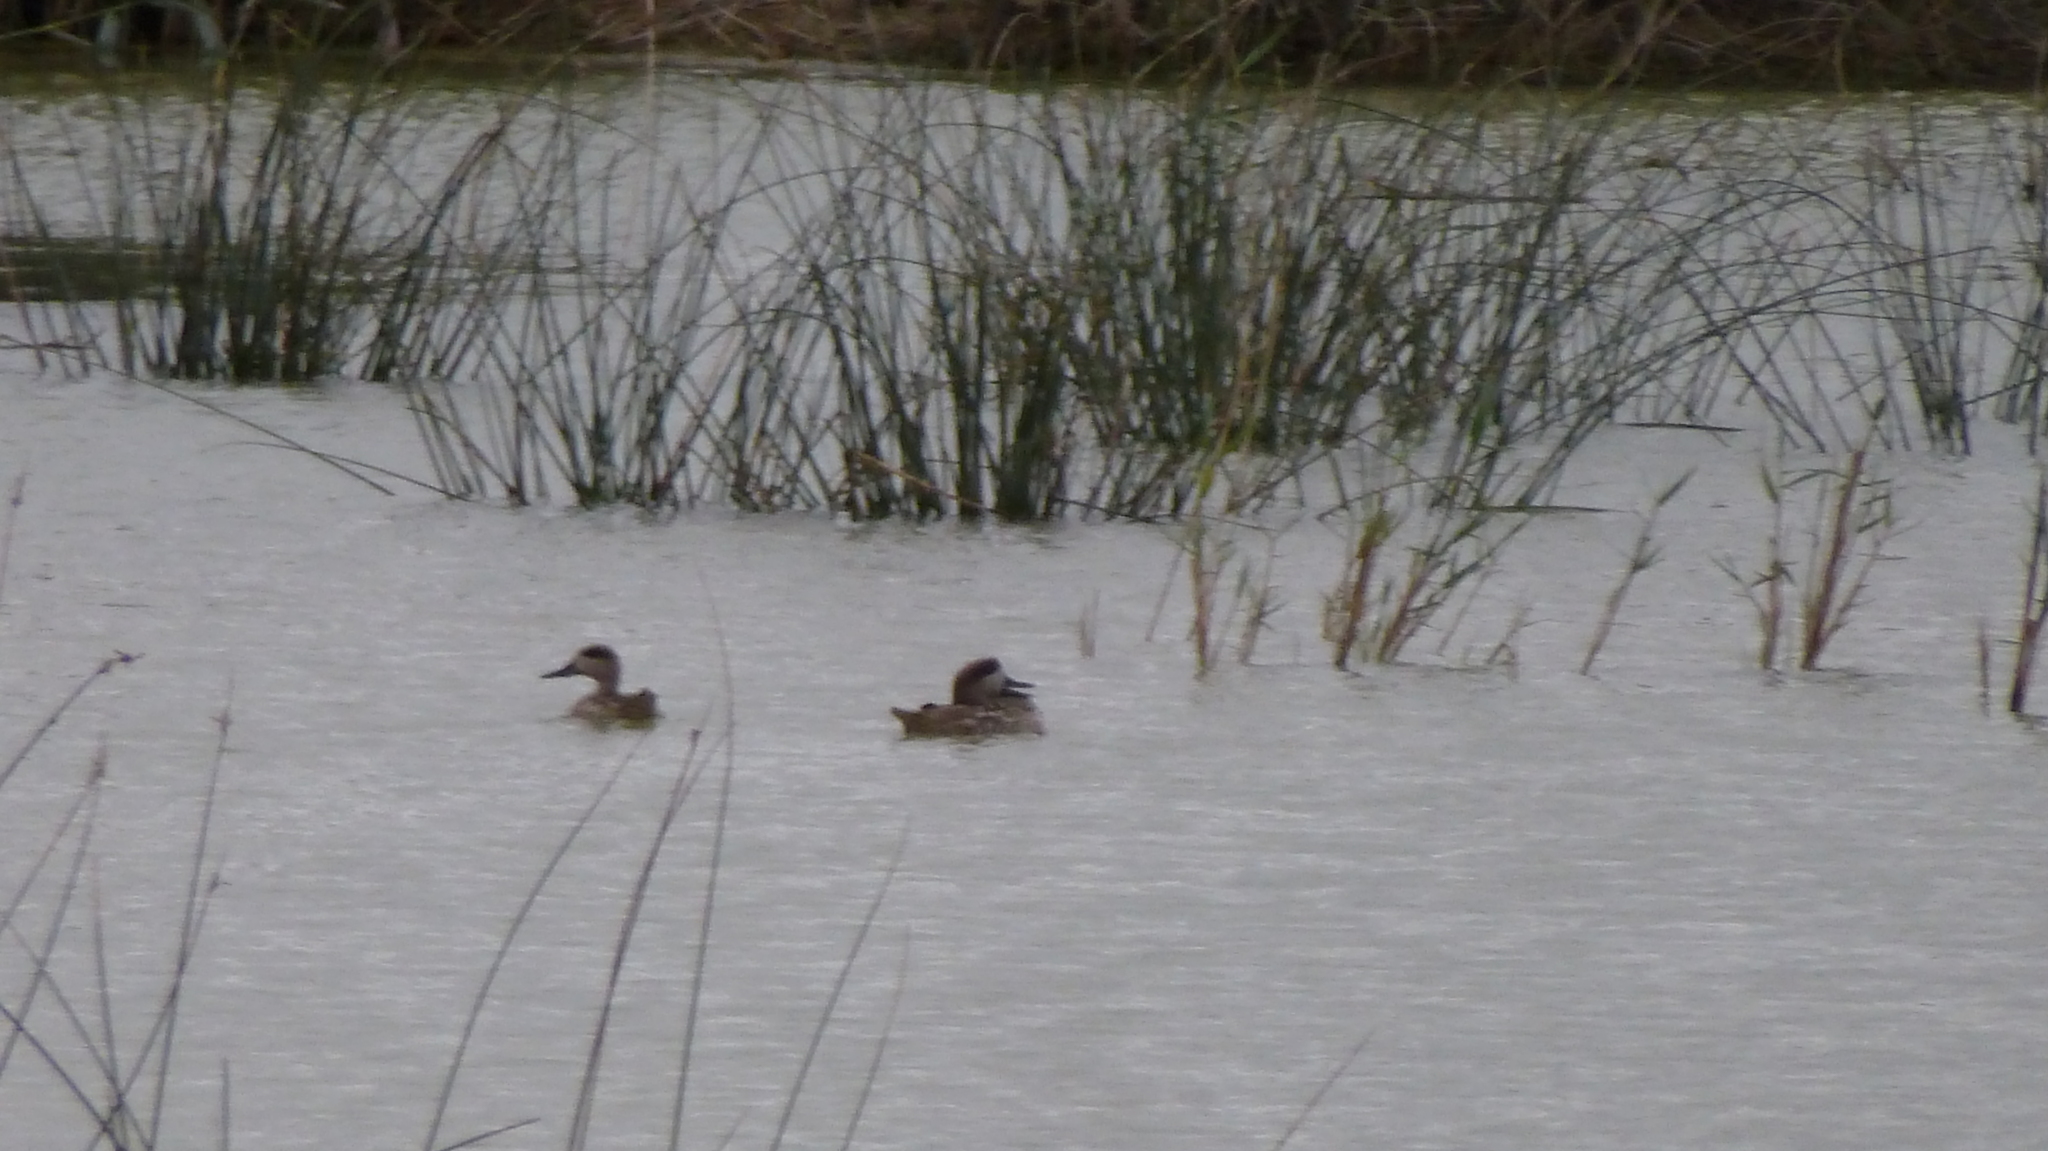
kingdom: Animalia
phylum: Chordata
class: Aves
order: Anseriformes
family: Anatidae
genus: Marmaronetta
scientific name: Marmaronetta angustirostris
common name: Marbled duck
